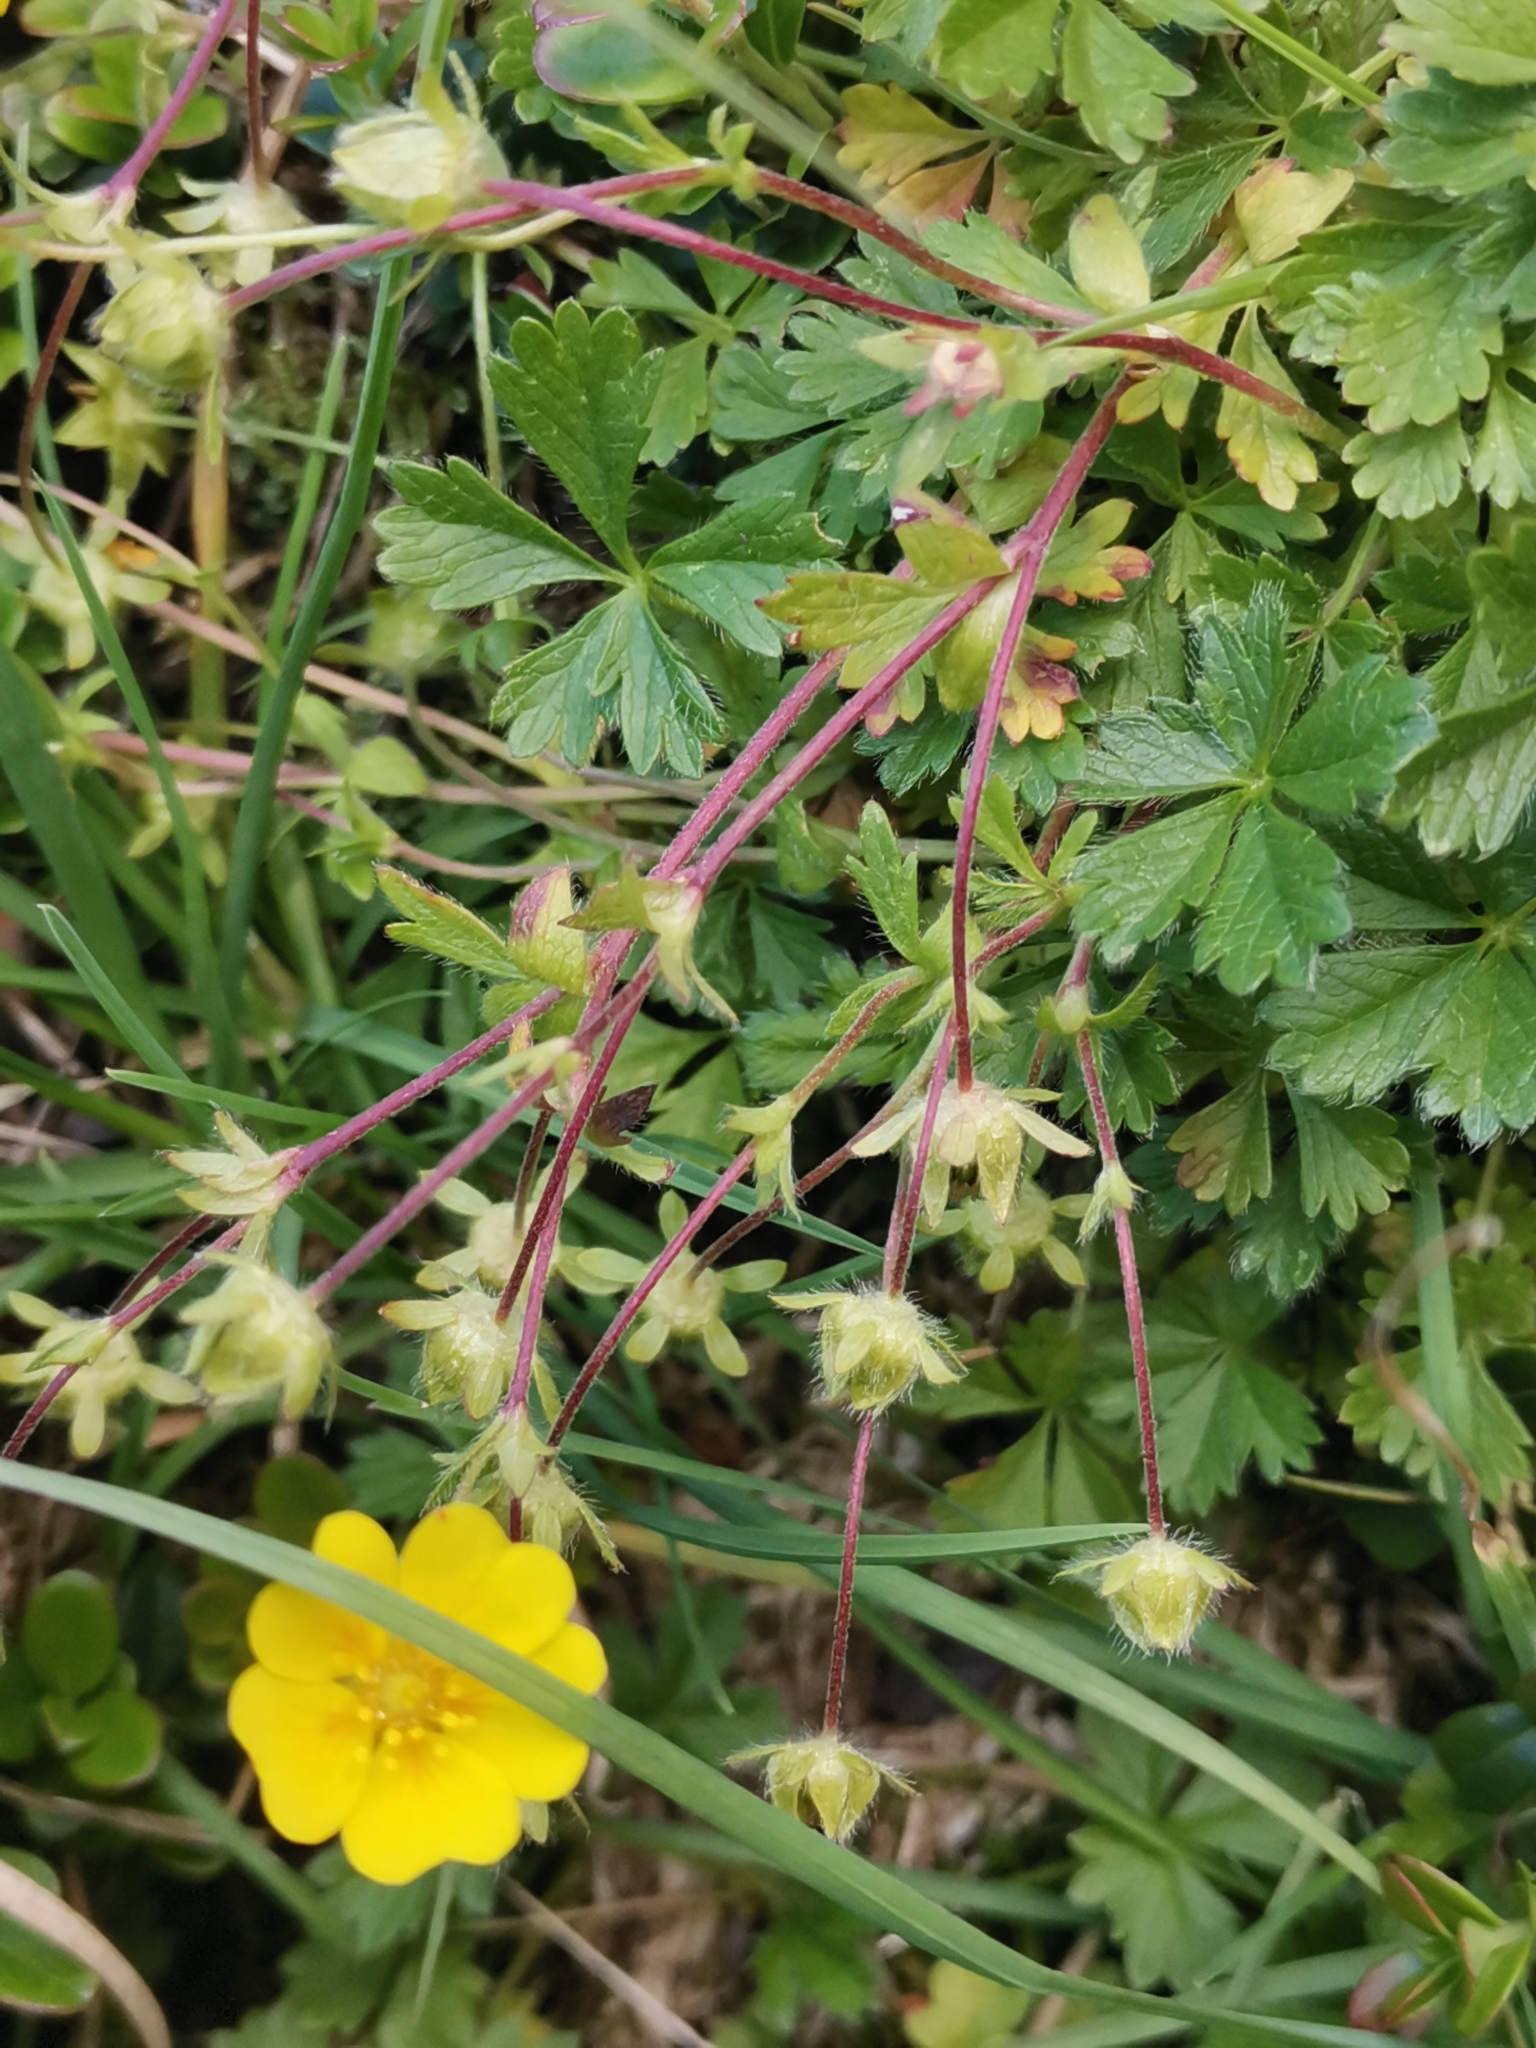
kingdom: Plantae
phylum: Tracheophyta
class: Magnoliopsida
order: Rosales
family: Rosaceae
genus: Potentilla
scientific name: Potentilla crantzii
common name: Alpine cinquefoil
